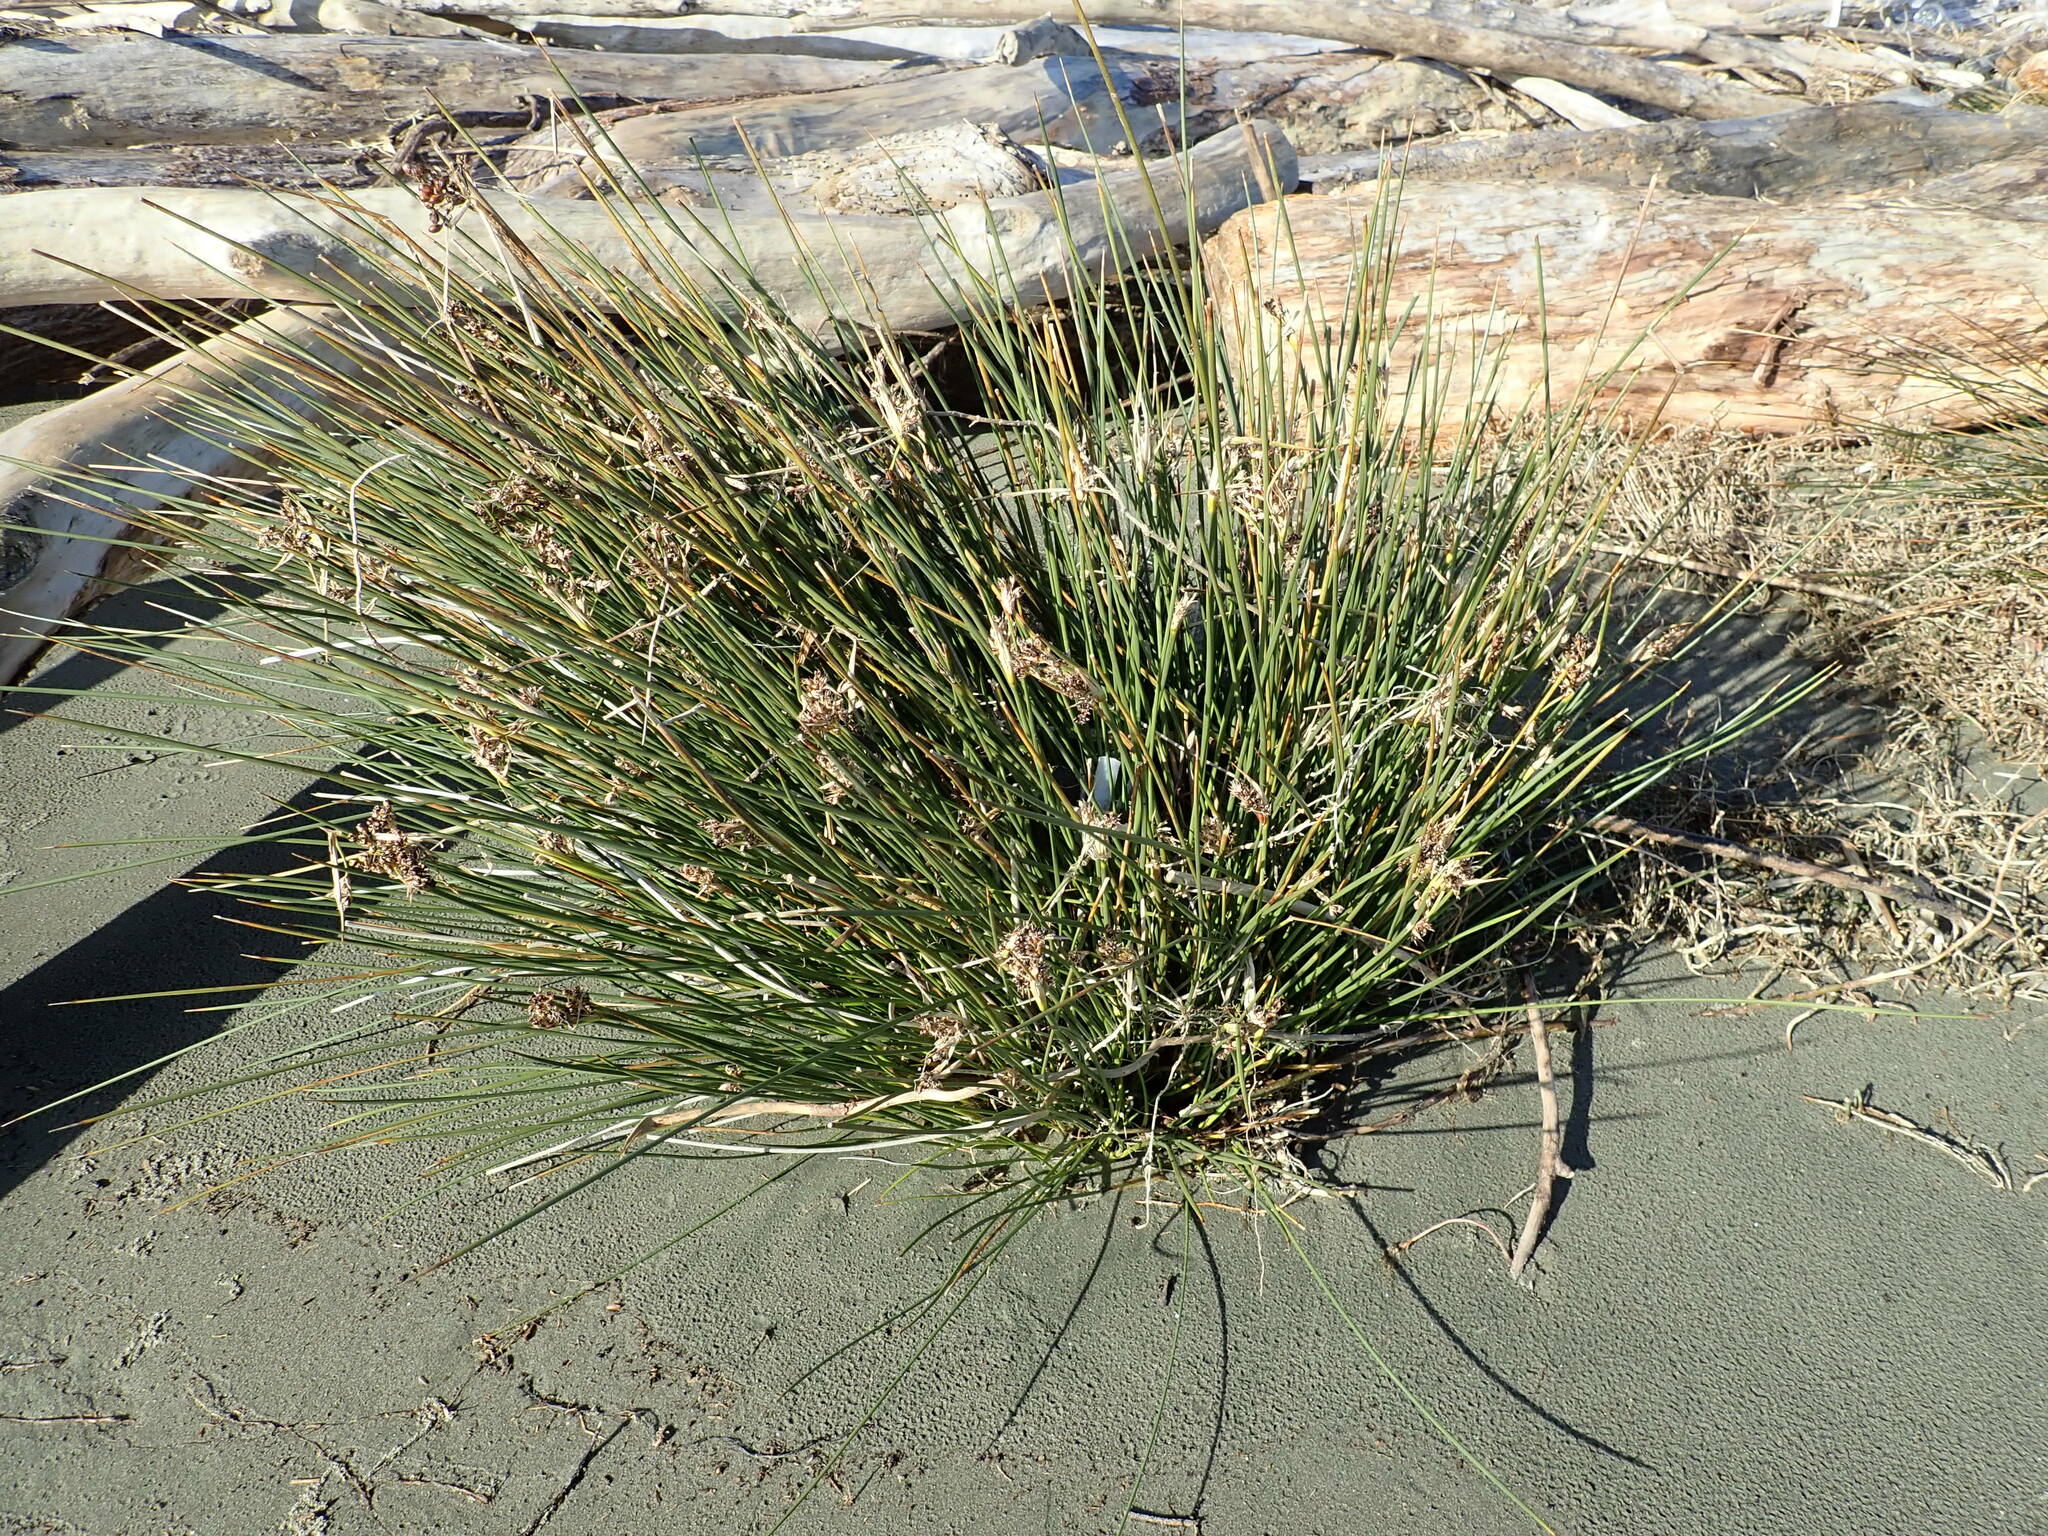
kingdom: Plantae
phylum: Tracheophyta
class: Liliopsida
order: Poales
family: Juncaceae
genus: Juncus
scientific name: Juncus kraussii
